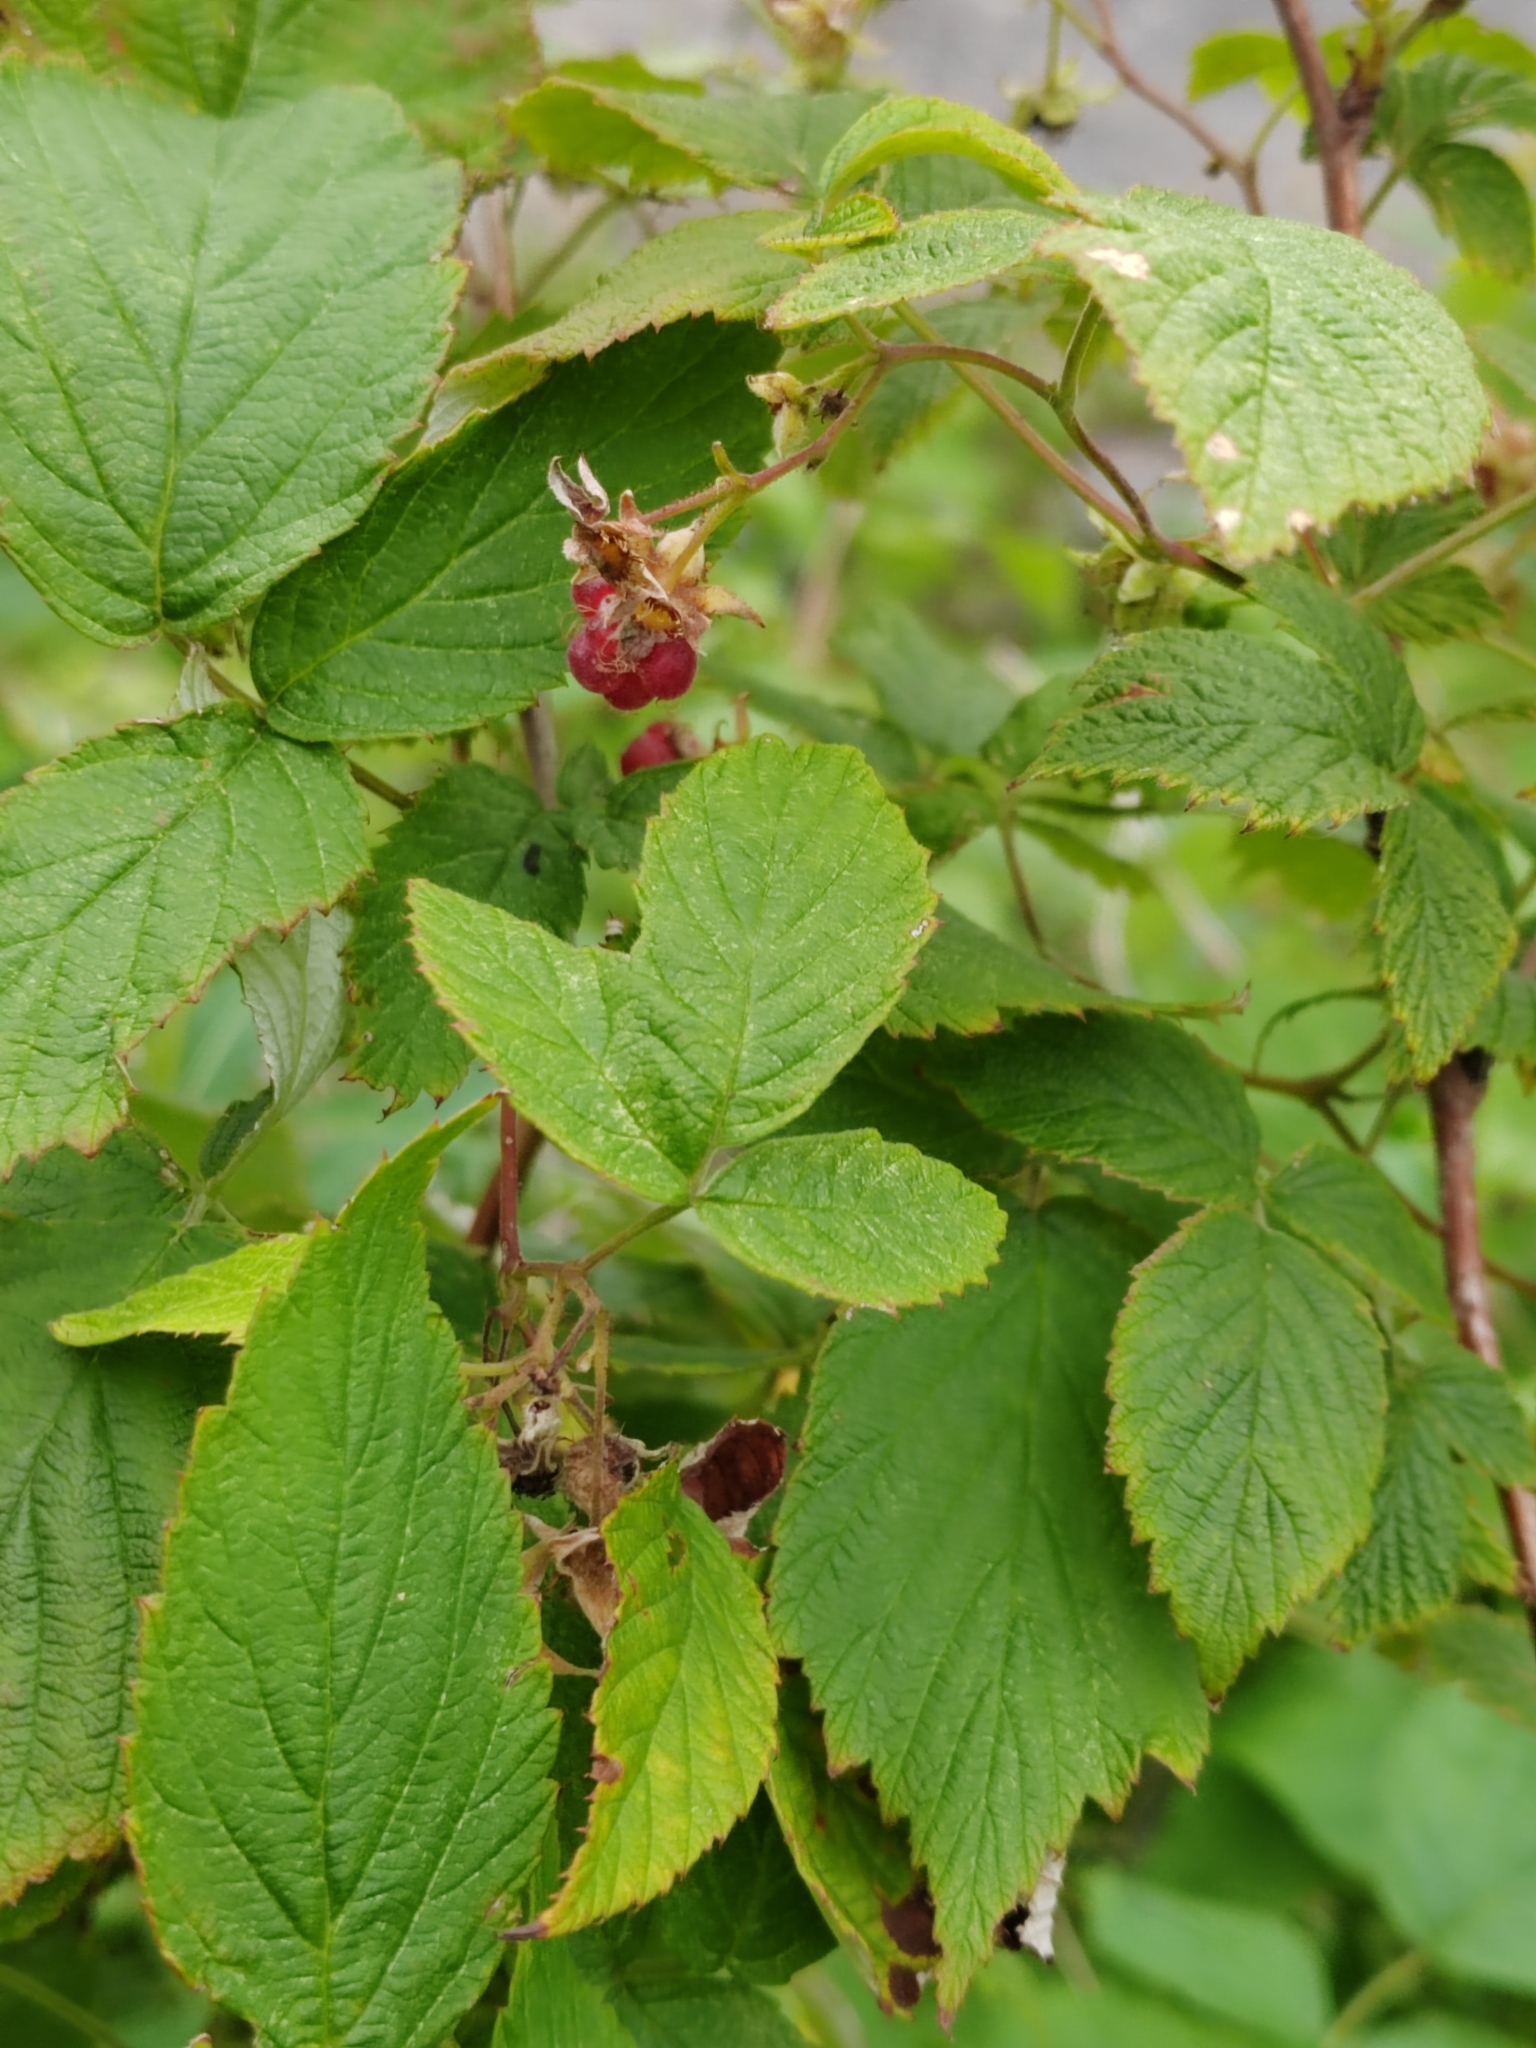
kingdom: Plantae
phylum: Tracheophyta
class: Magnoliopsida
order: Rosales
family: Rosaceae
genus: Rubus
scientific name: Rubus idaeus
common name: Raspberry
